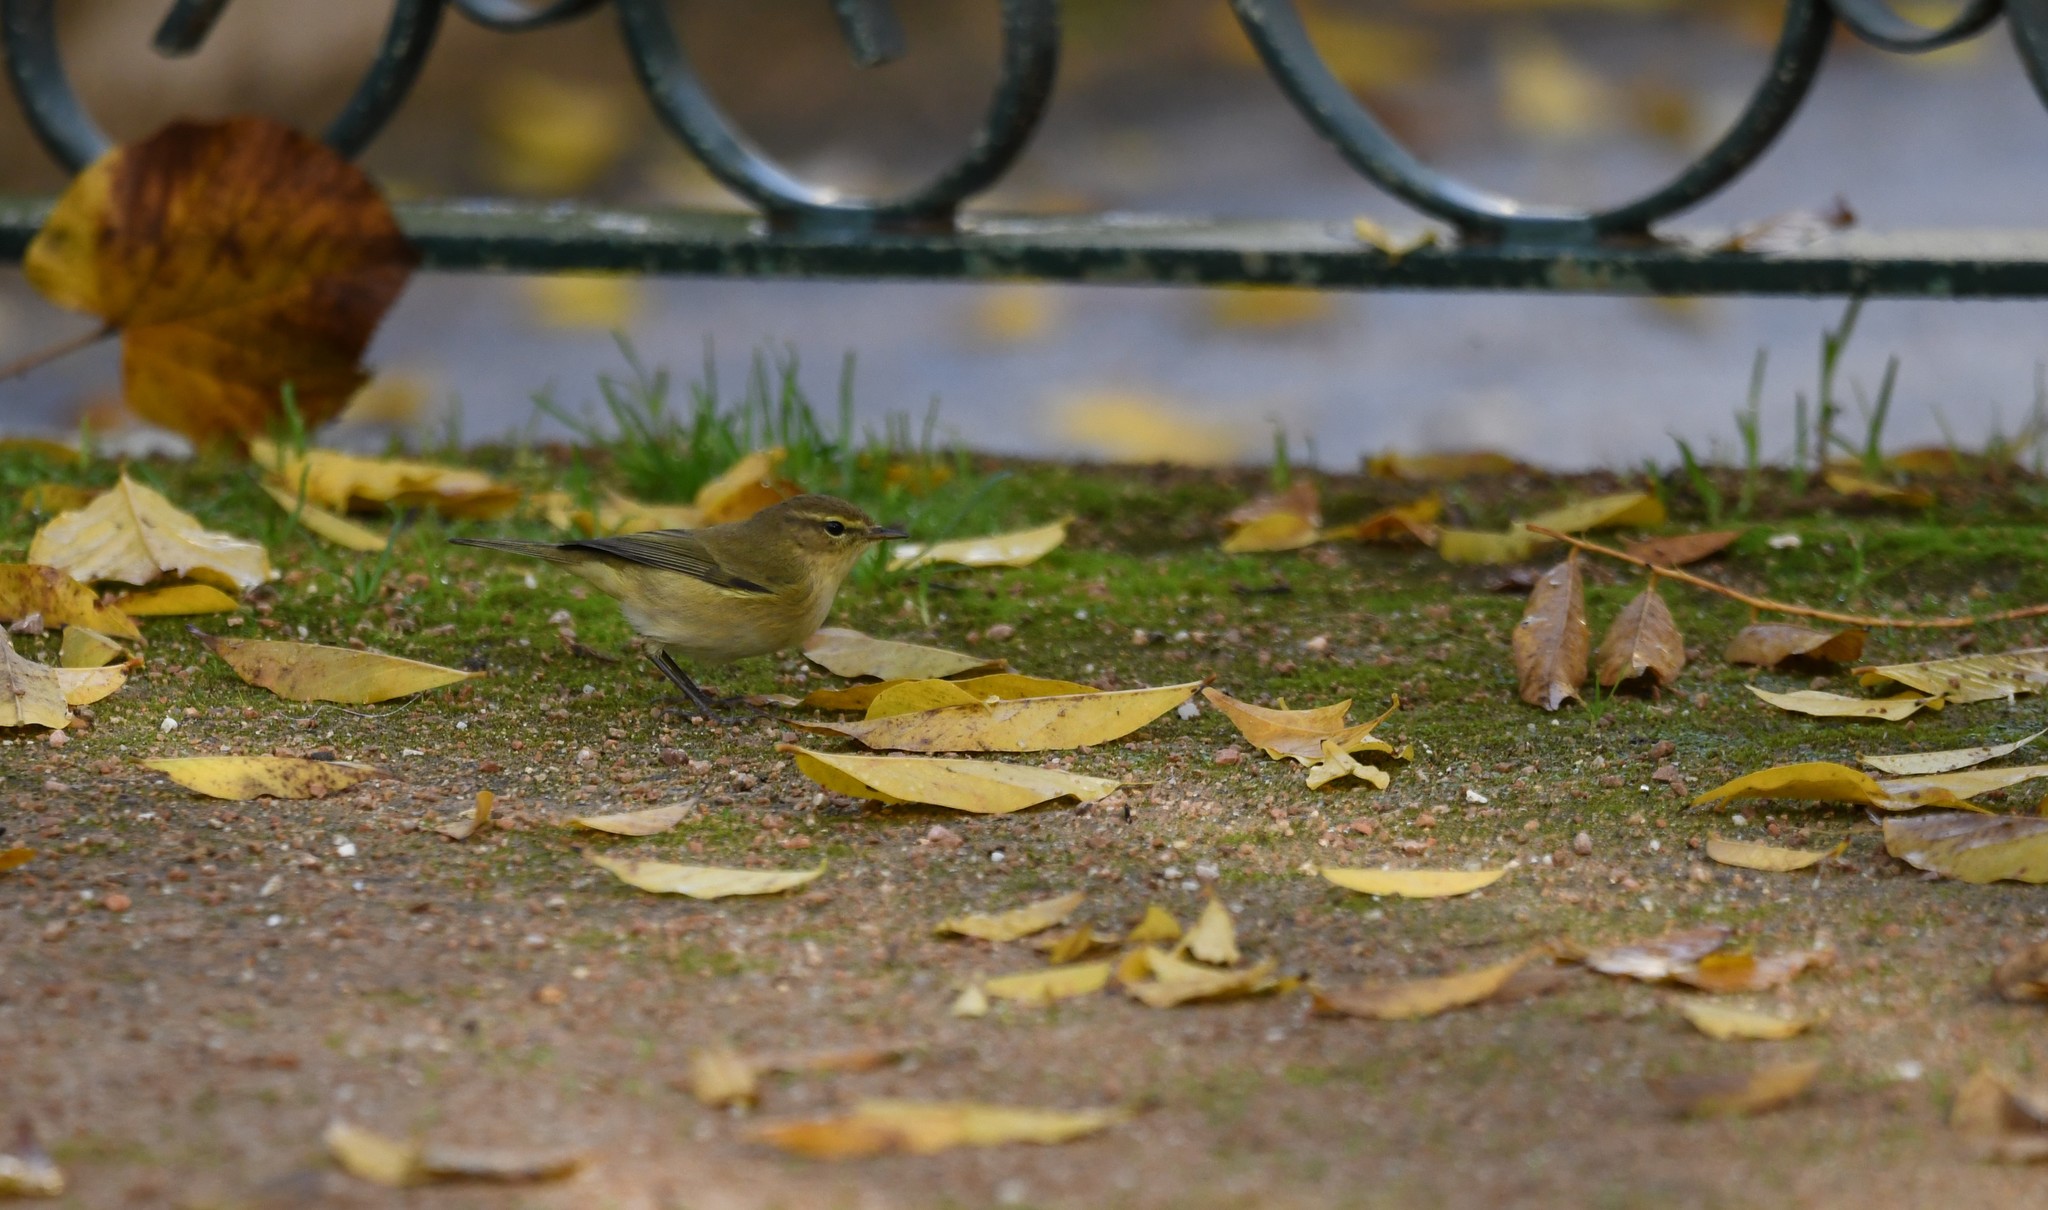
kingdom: Animalia
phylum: Chordata
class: Aves
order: Passeriformes
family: Phylloscopidae
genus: Phylloscopus
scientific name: Phylloscopus collybita
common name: Common chiffchaff
